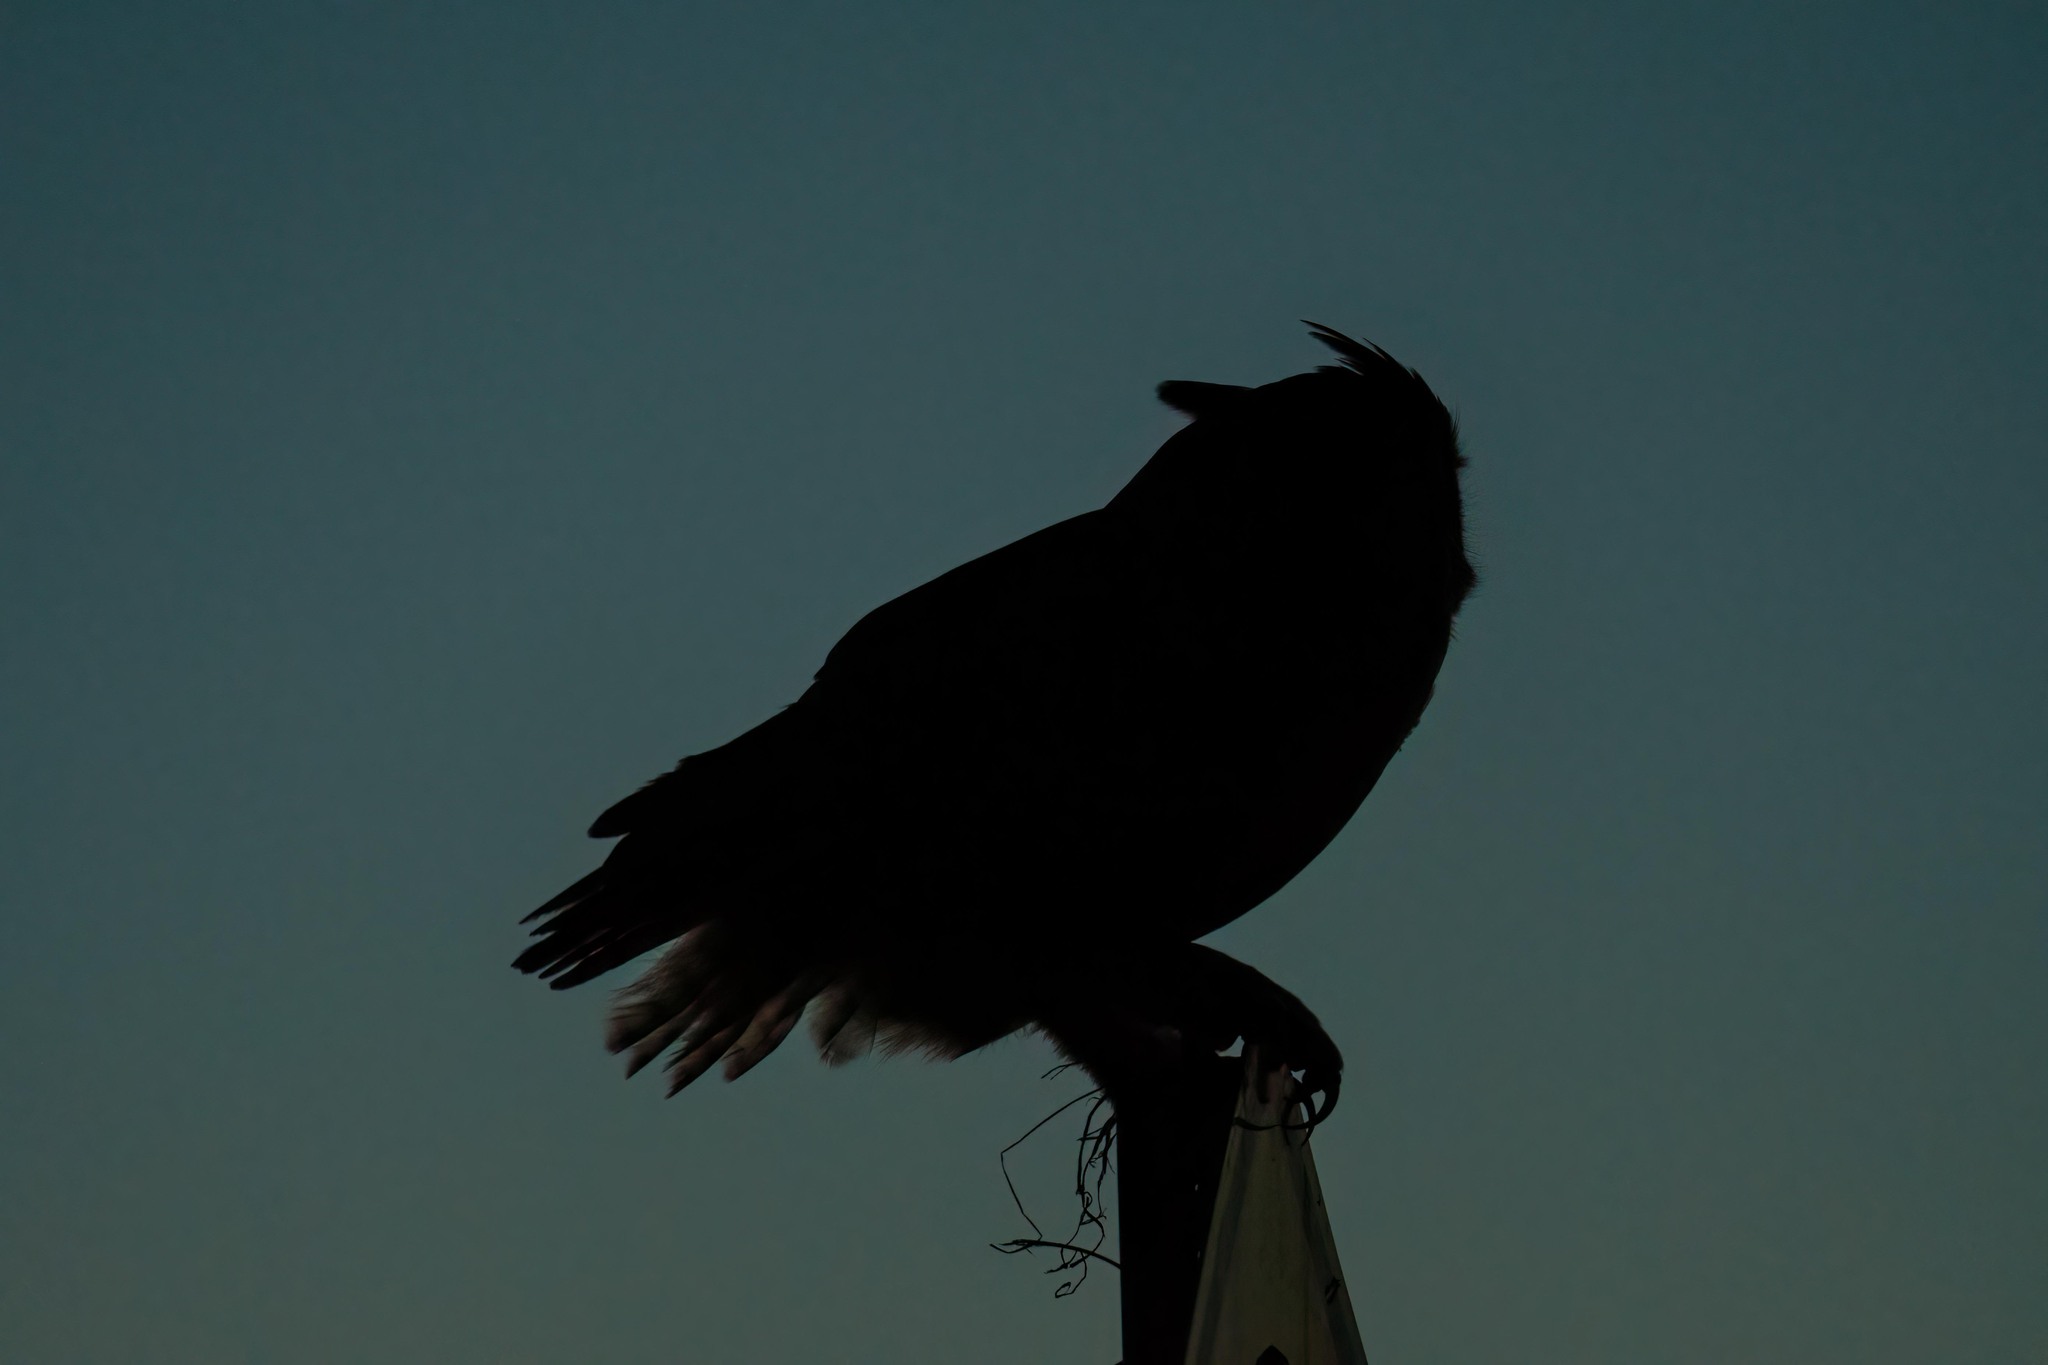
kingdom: Animalia
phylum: Chordata
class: Aves
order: Strigiformes
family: Strigidae
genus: Bubo
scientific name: Bubo virginianus
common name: Great horned owl
